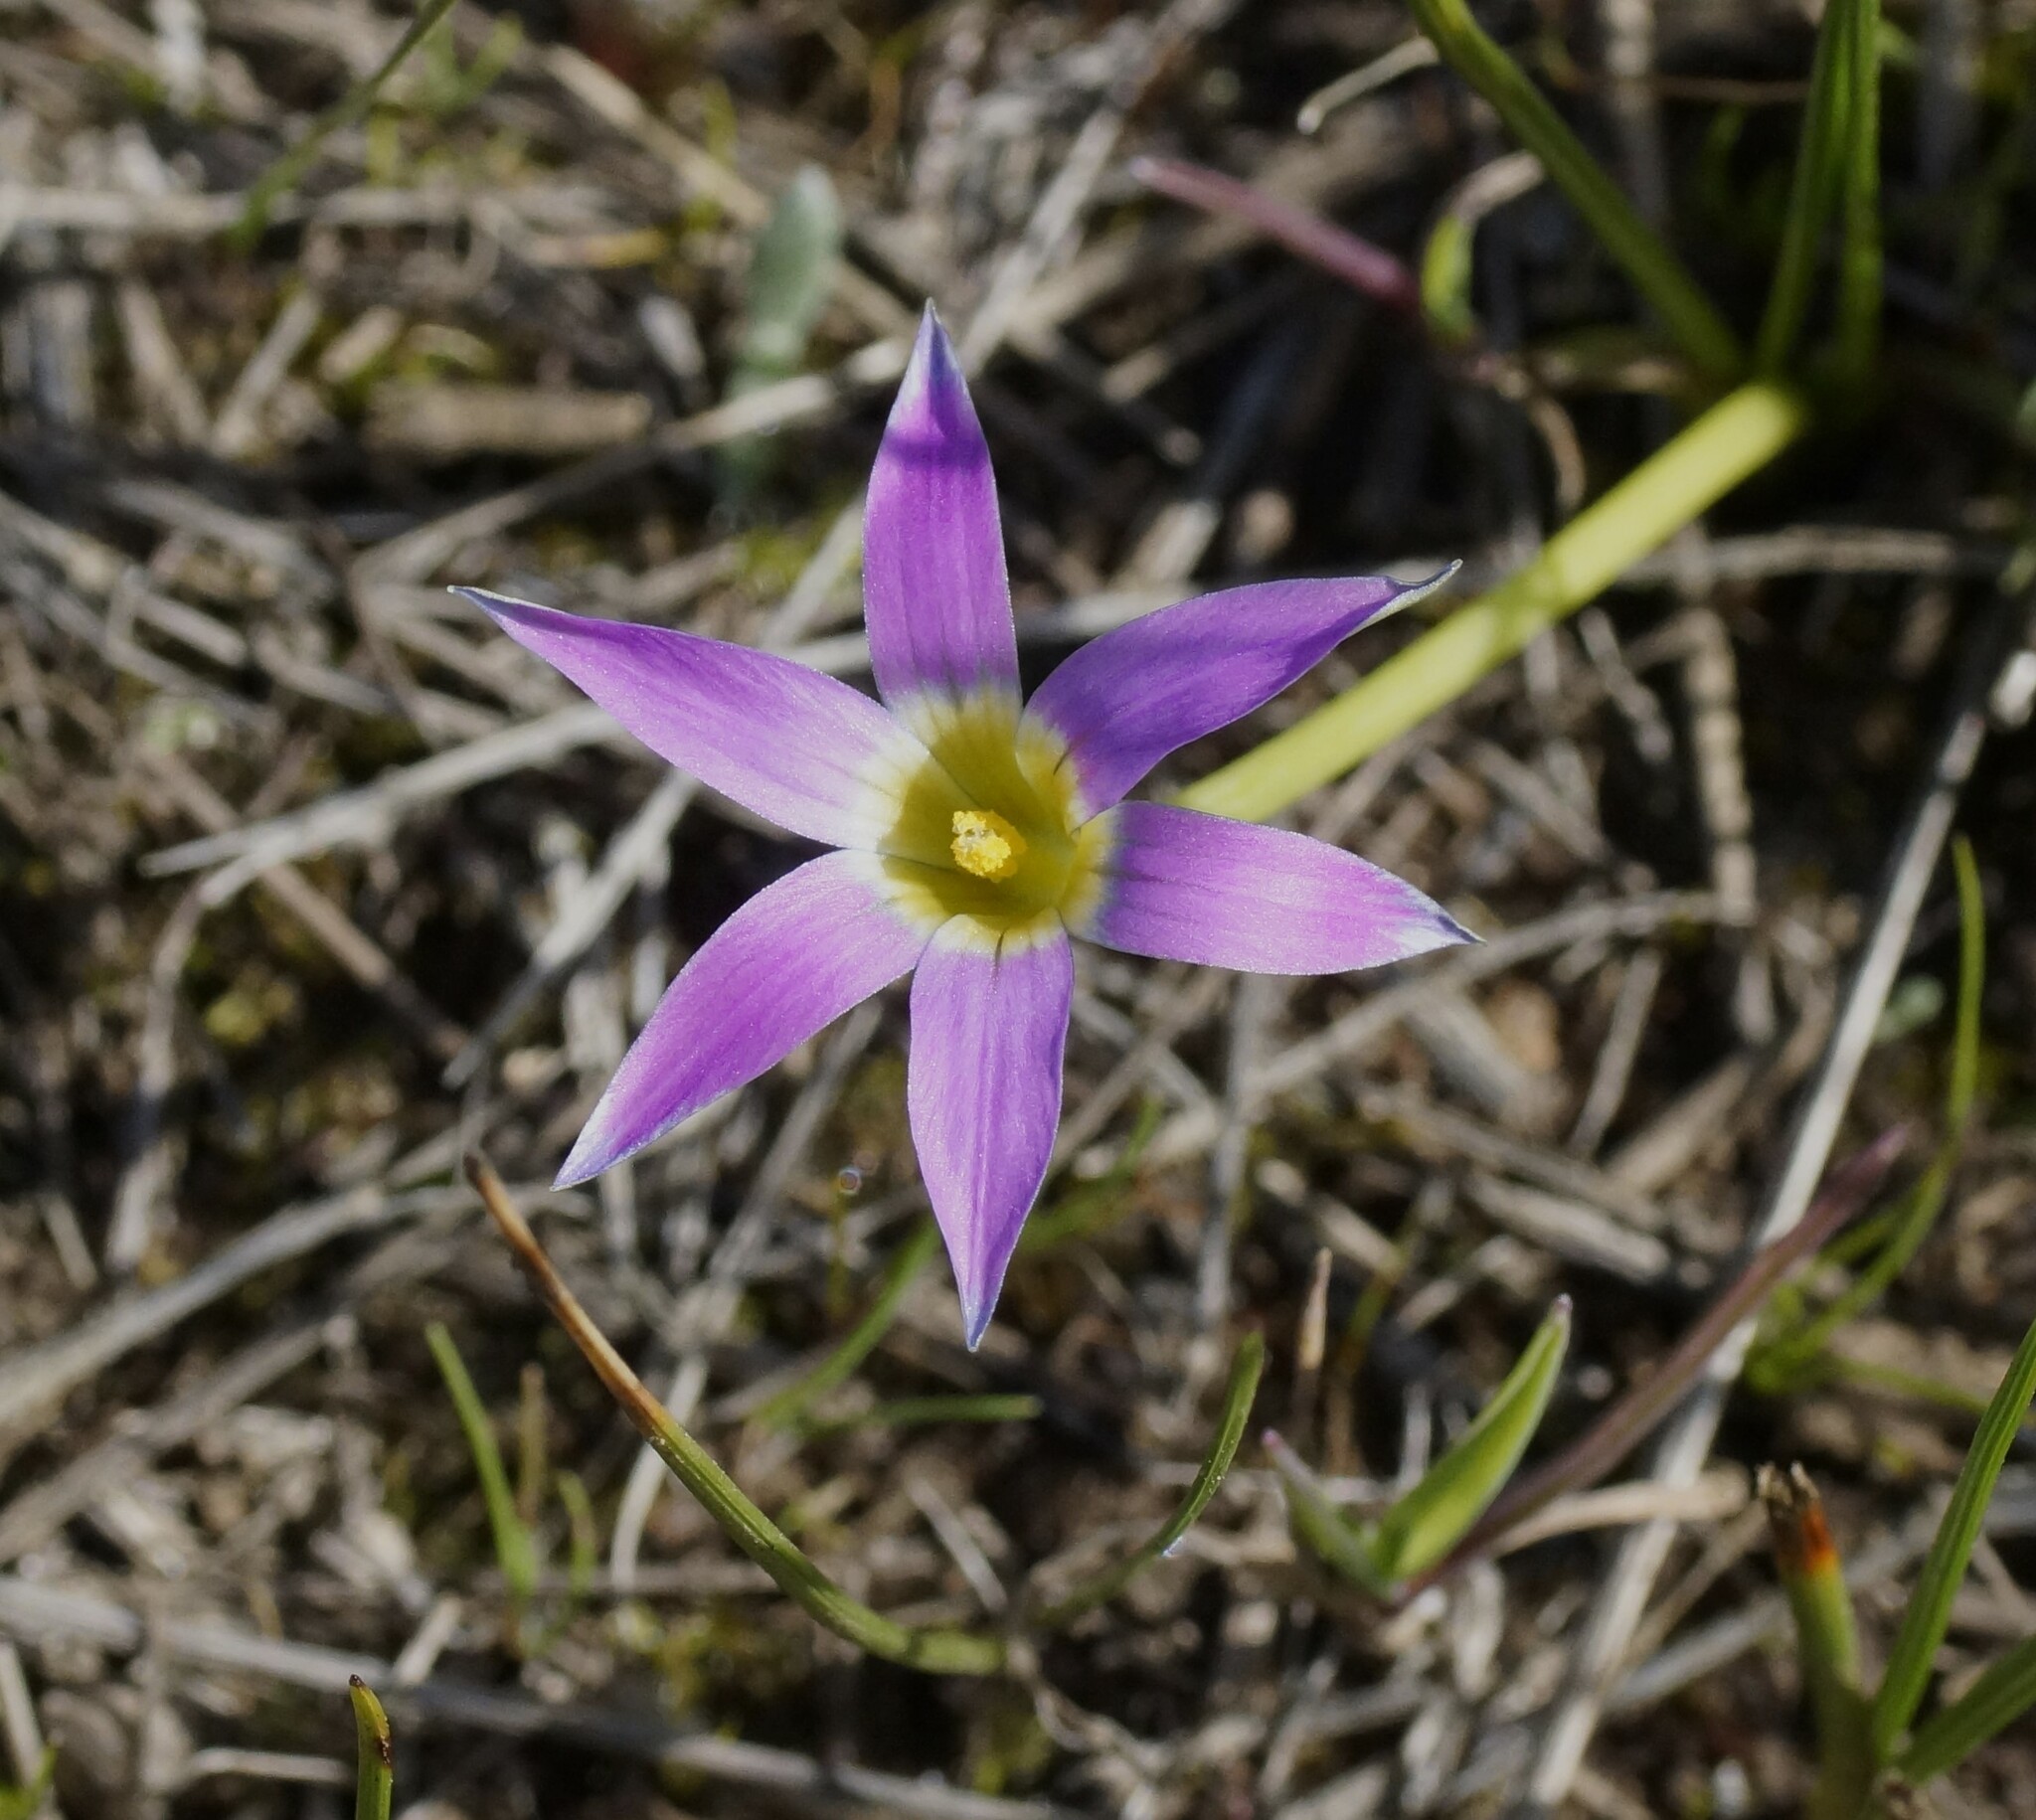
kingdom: Plantae
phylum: Tracheophyta
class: Liliopsida
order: Asparagales
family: Iridaceae
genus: Romulea
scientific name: Romulea rosea
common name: Oniongrass
